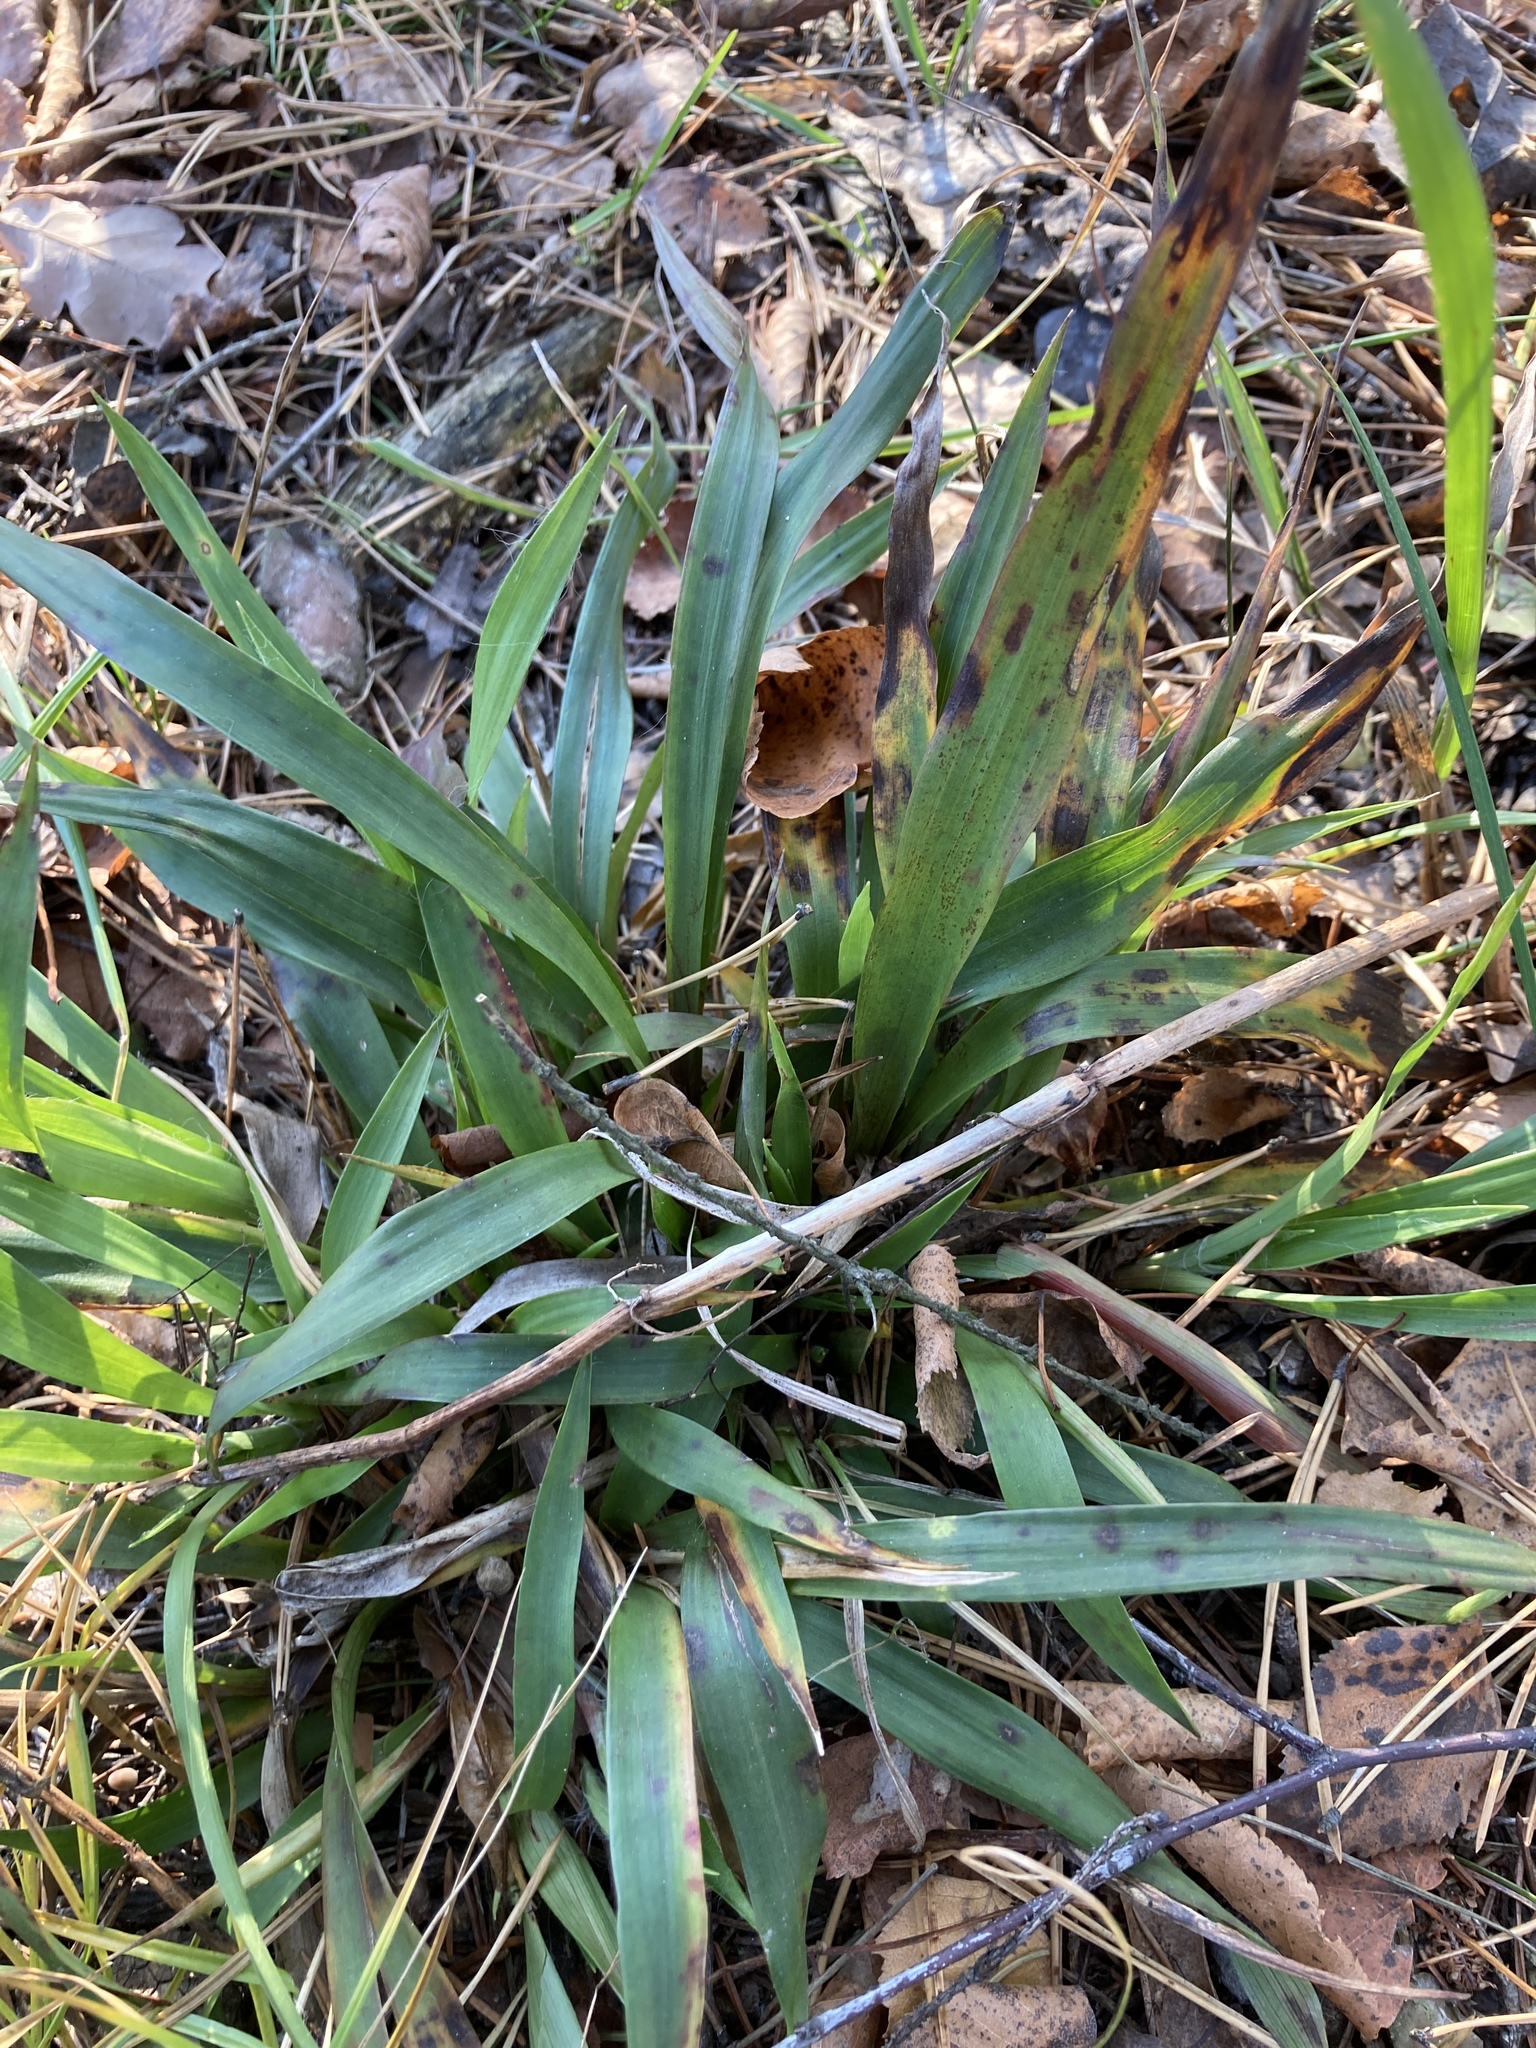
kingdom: Plantae
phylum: Tracheophyta
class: Liliopsida
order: Poales
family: Juncaceae
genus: Luzula
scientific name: Luzula pilosa
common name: Hairy wood-rush
